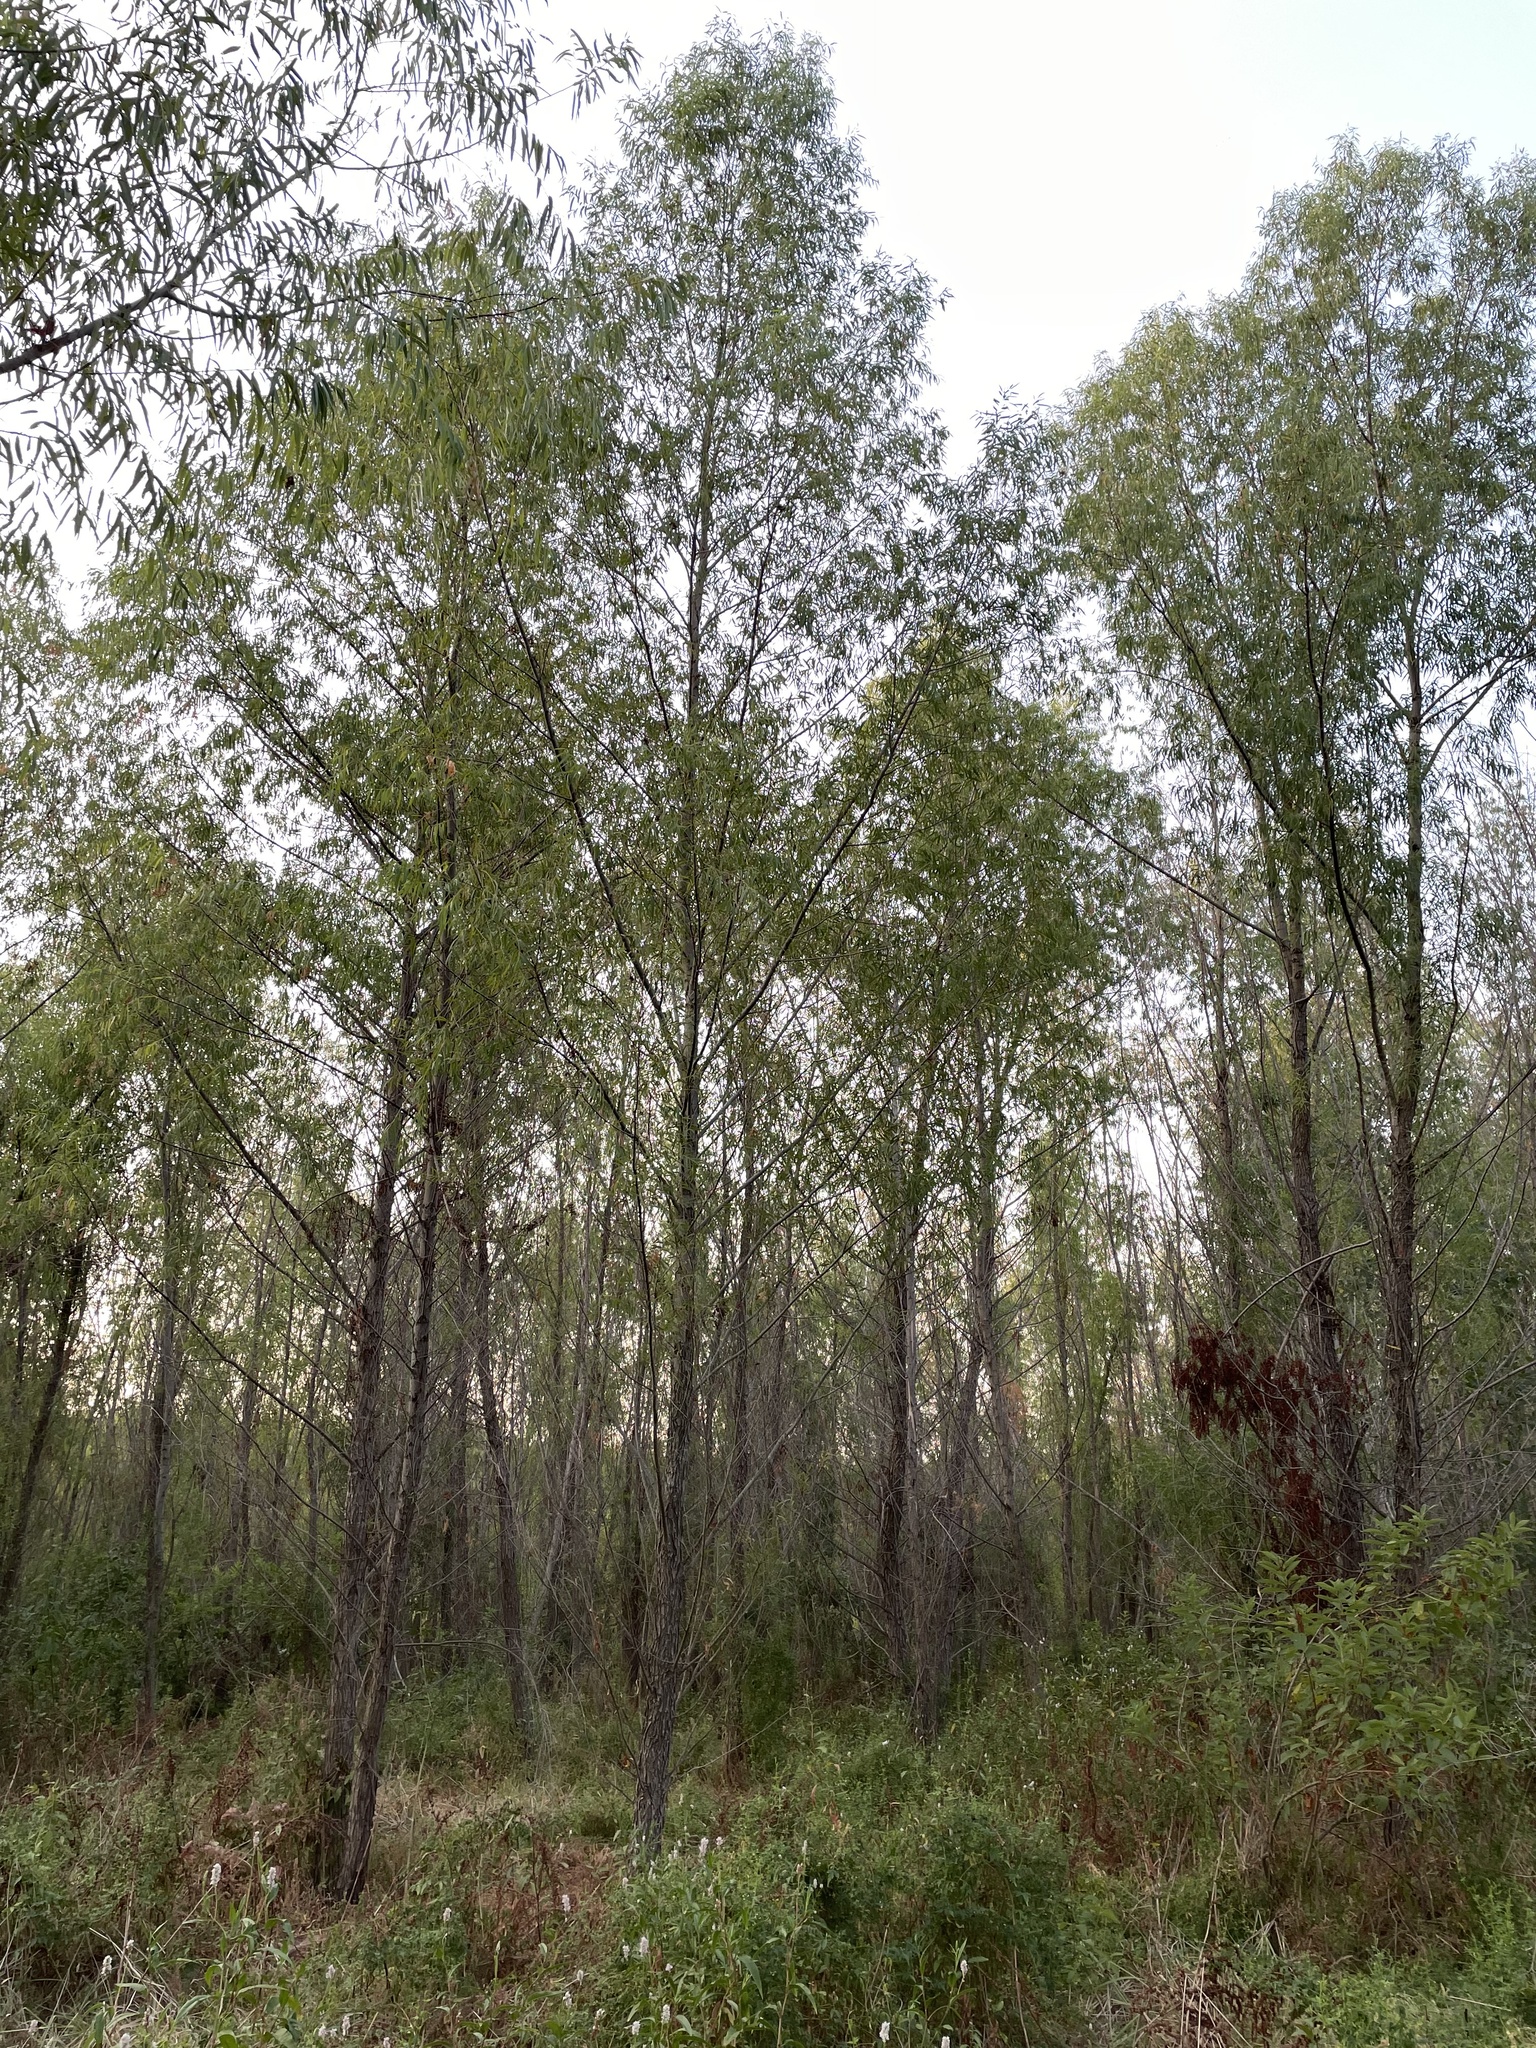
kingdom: Plantae
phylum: Tracheophyta
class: Magnoliopsida
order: Malpighiales
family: Salicaceae
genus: Salix
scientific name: Salix nigra
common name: Black willow
